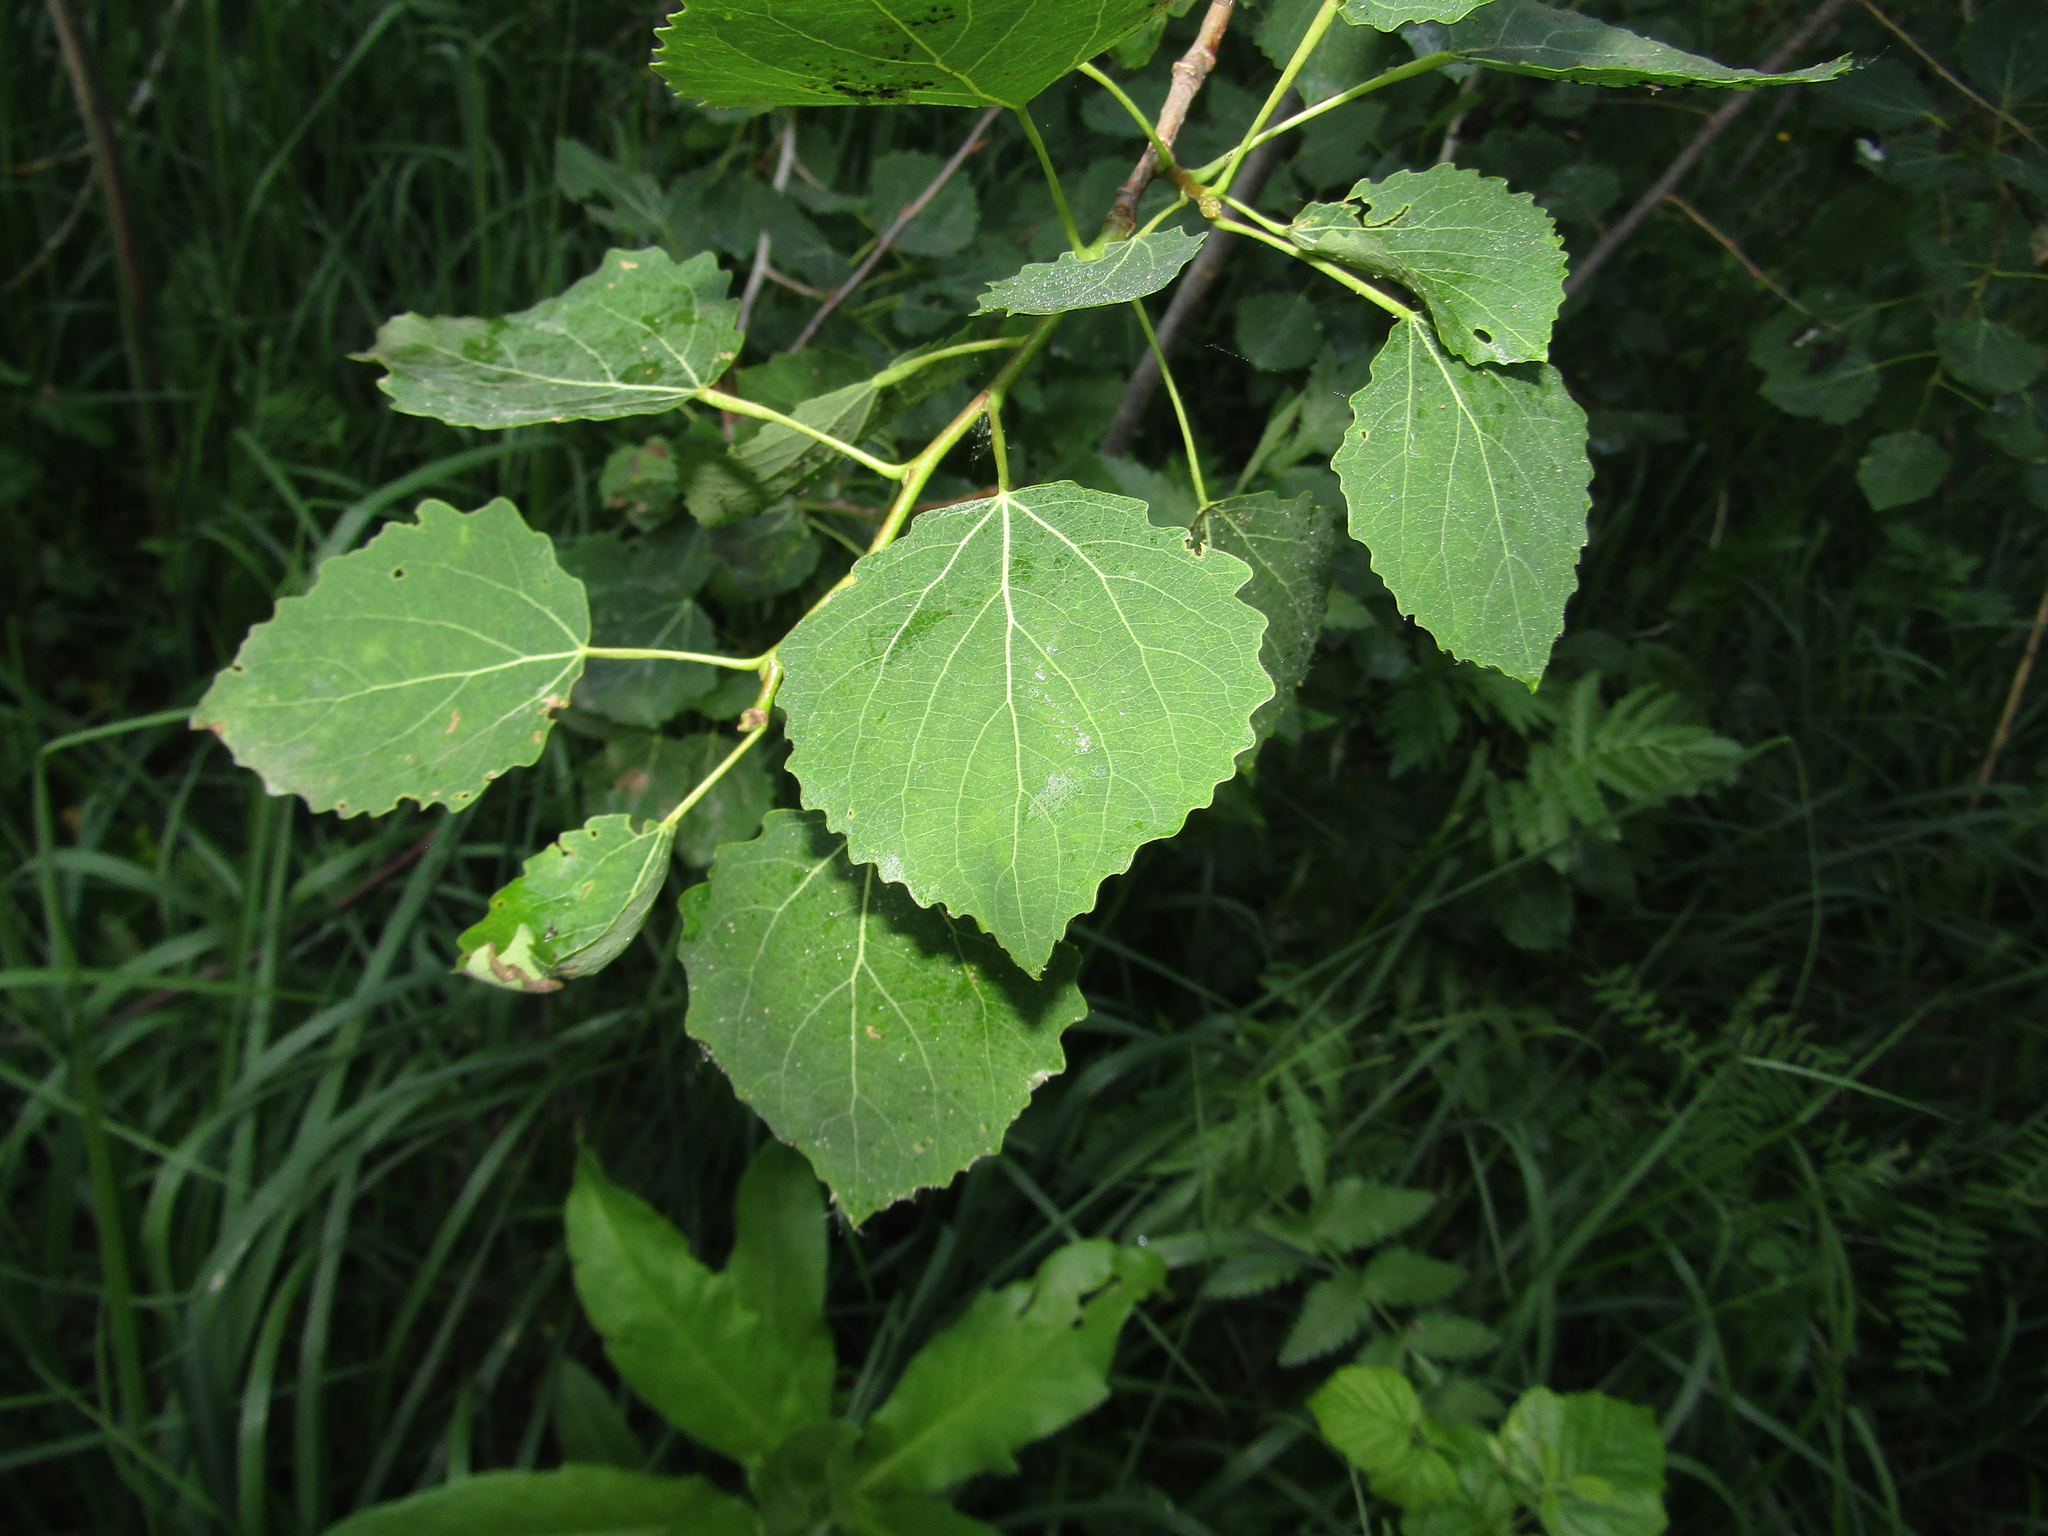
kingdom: Plantae
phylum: Tracheophyta
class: Magnoliopsida
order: Malpighiales
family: Salicaceae
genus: Populus
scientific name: Populus tremula
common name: European aspen
